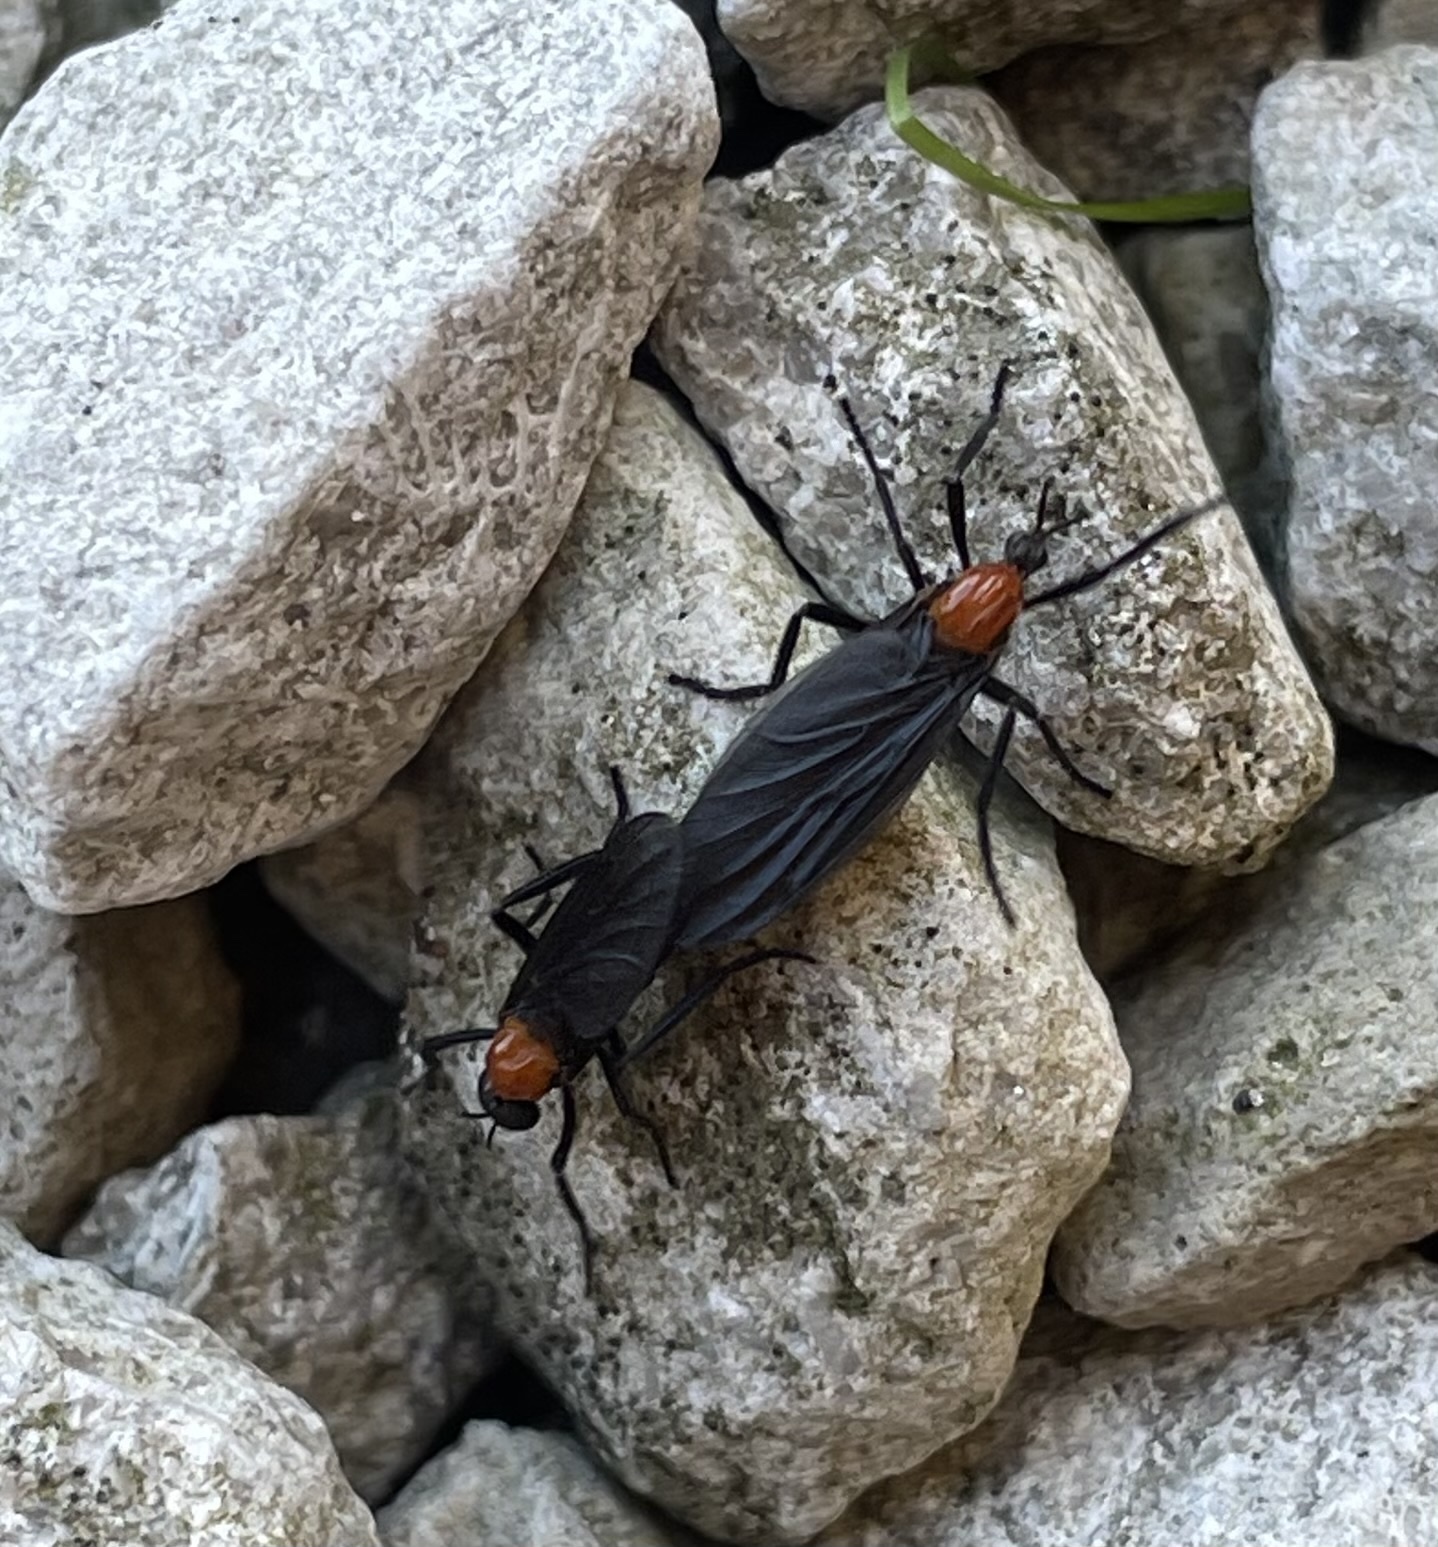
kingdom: Animalia
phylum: Arthropoda
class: Insecta
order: Diptera
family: Bibionidae
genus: Plecia
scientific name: Plecia nearctica
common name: March fly
